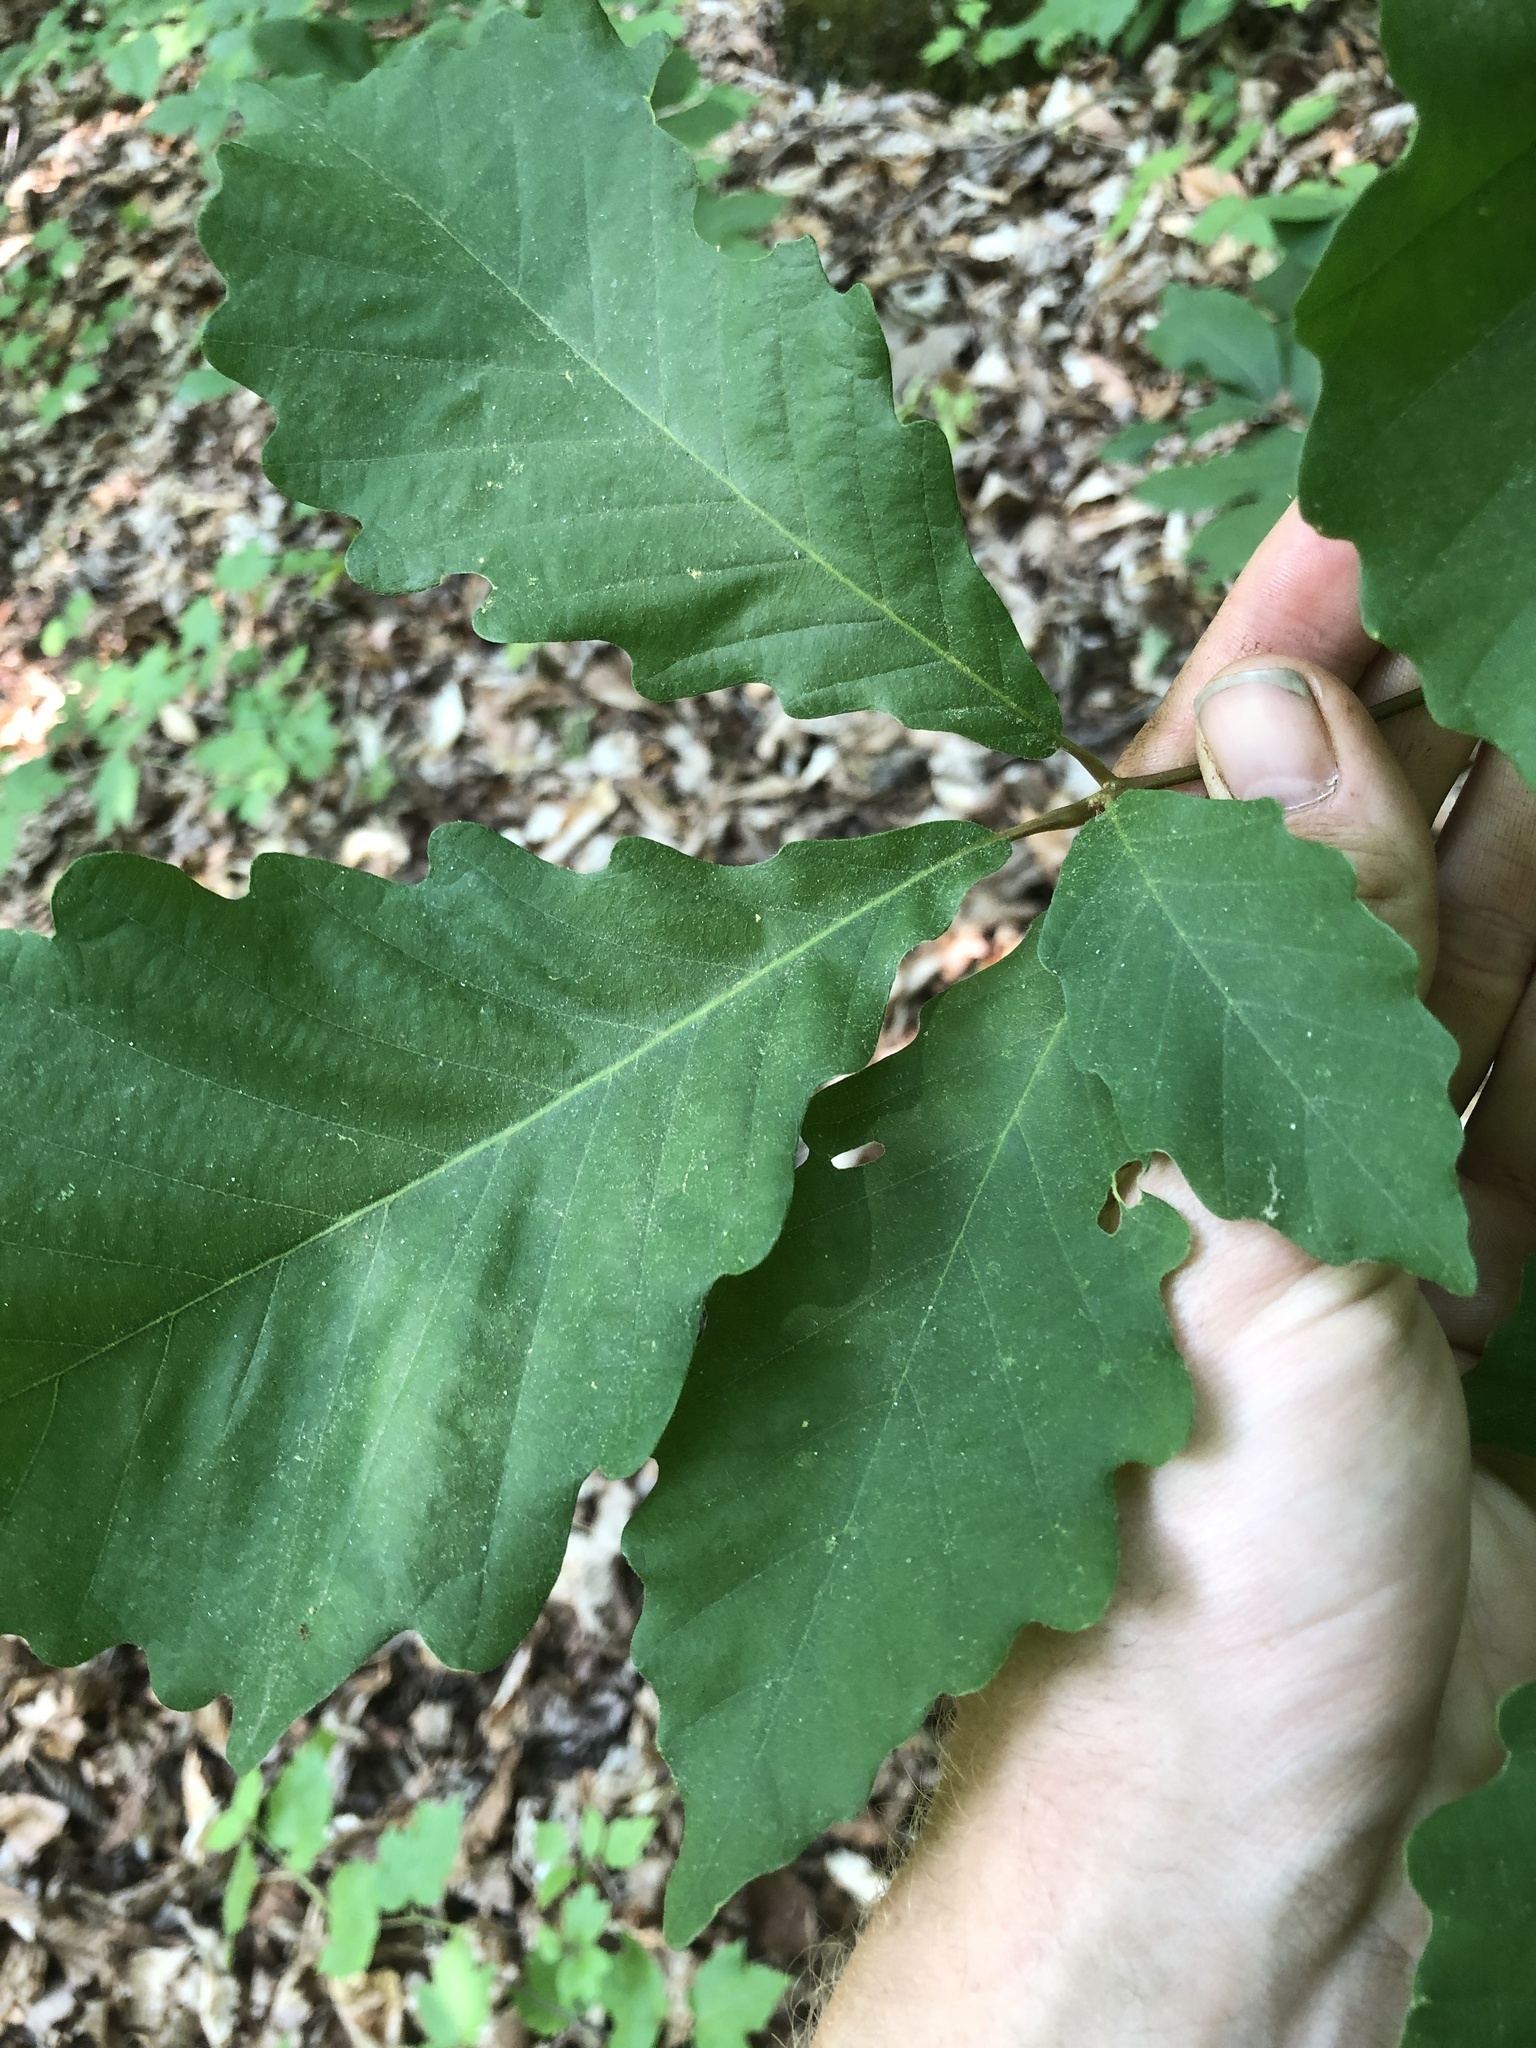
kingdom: Plantae
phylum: Tracheophyta
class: Magnoliopsida
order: Fagales
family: Fagaceae
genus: Quercus
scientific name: Quercus montana
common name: Chestnut oak
